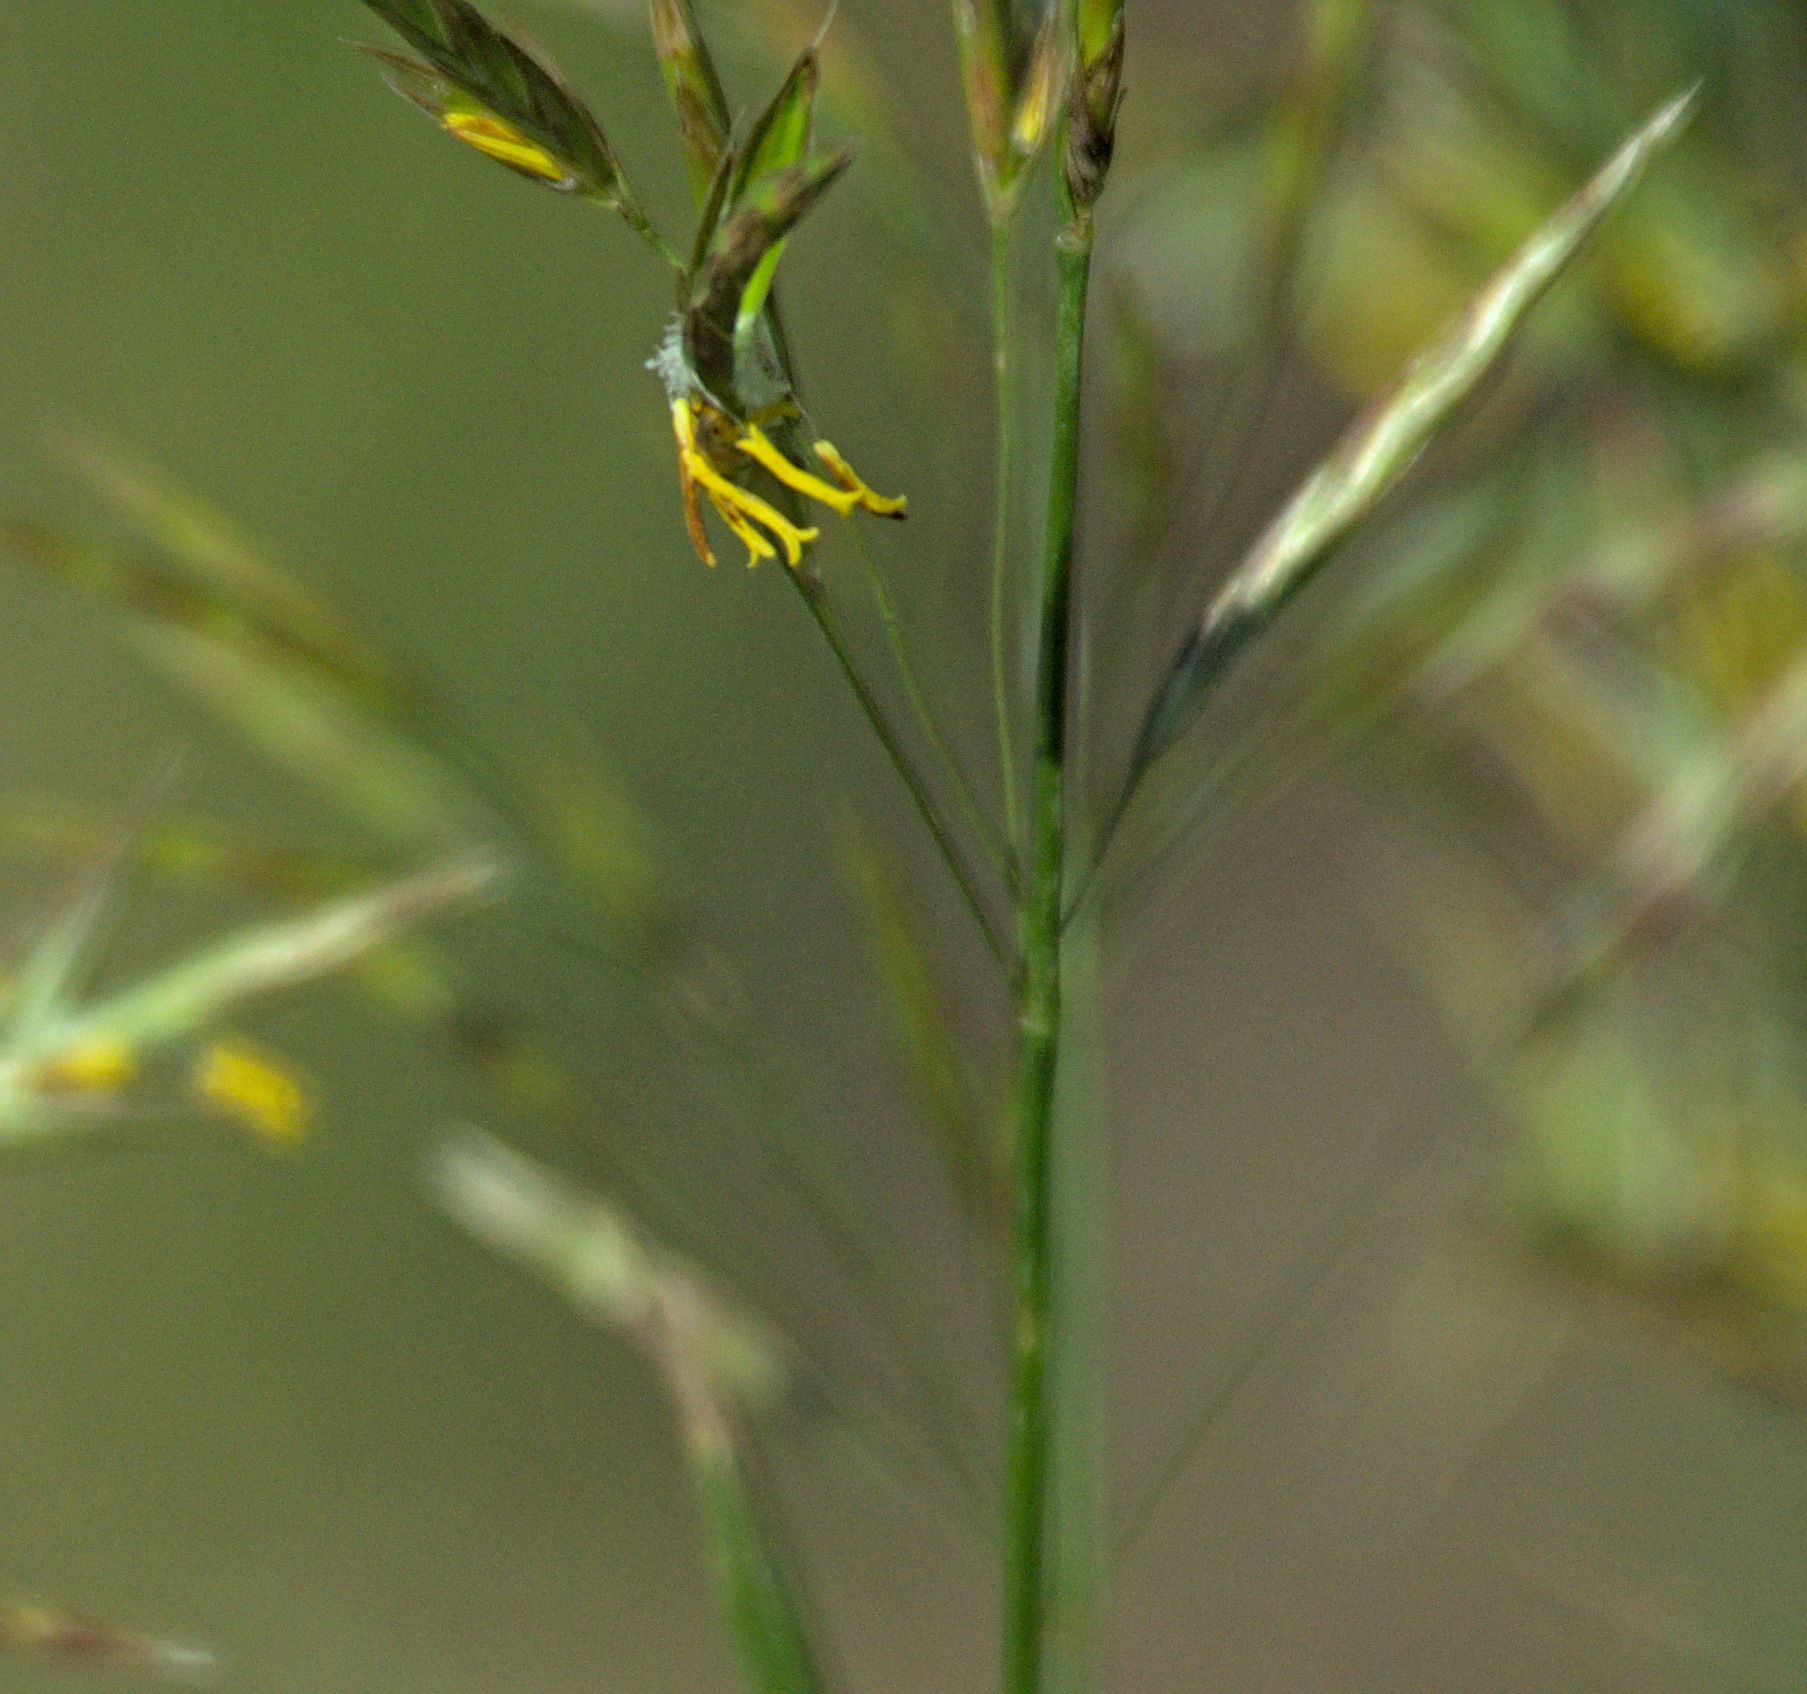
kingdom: Plantae
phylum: Tracheophyta
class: Liliopsida
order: Poales
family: Poaceae
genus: Bromus
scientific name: Bromus inermis
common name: Smooth brome
